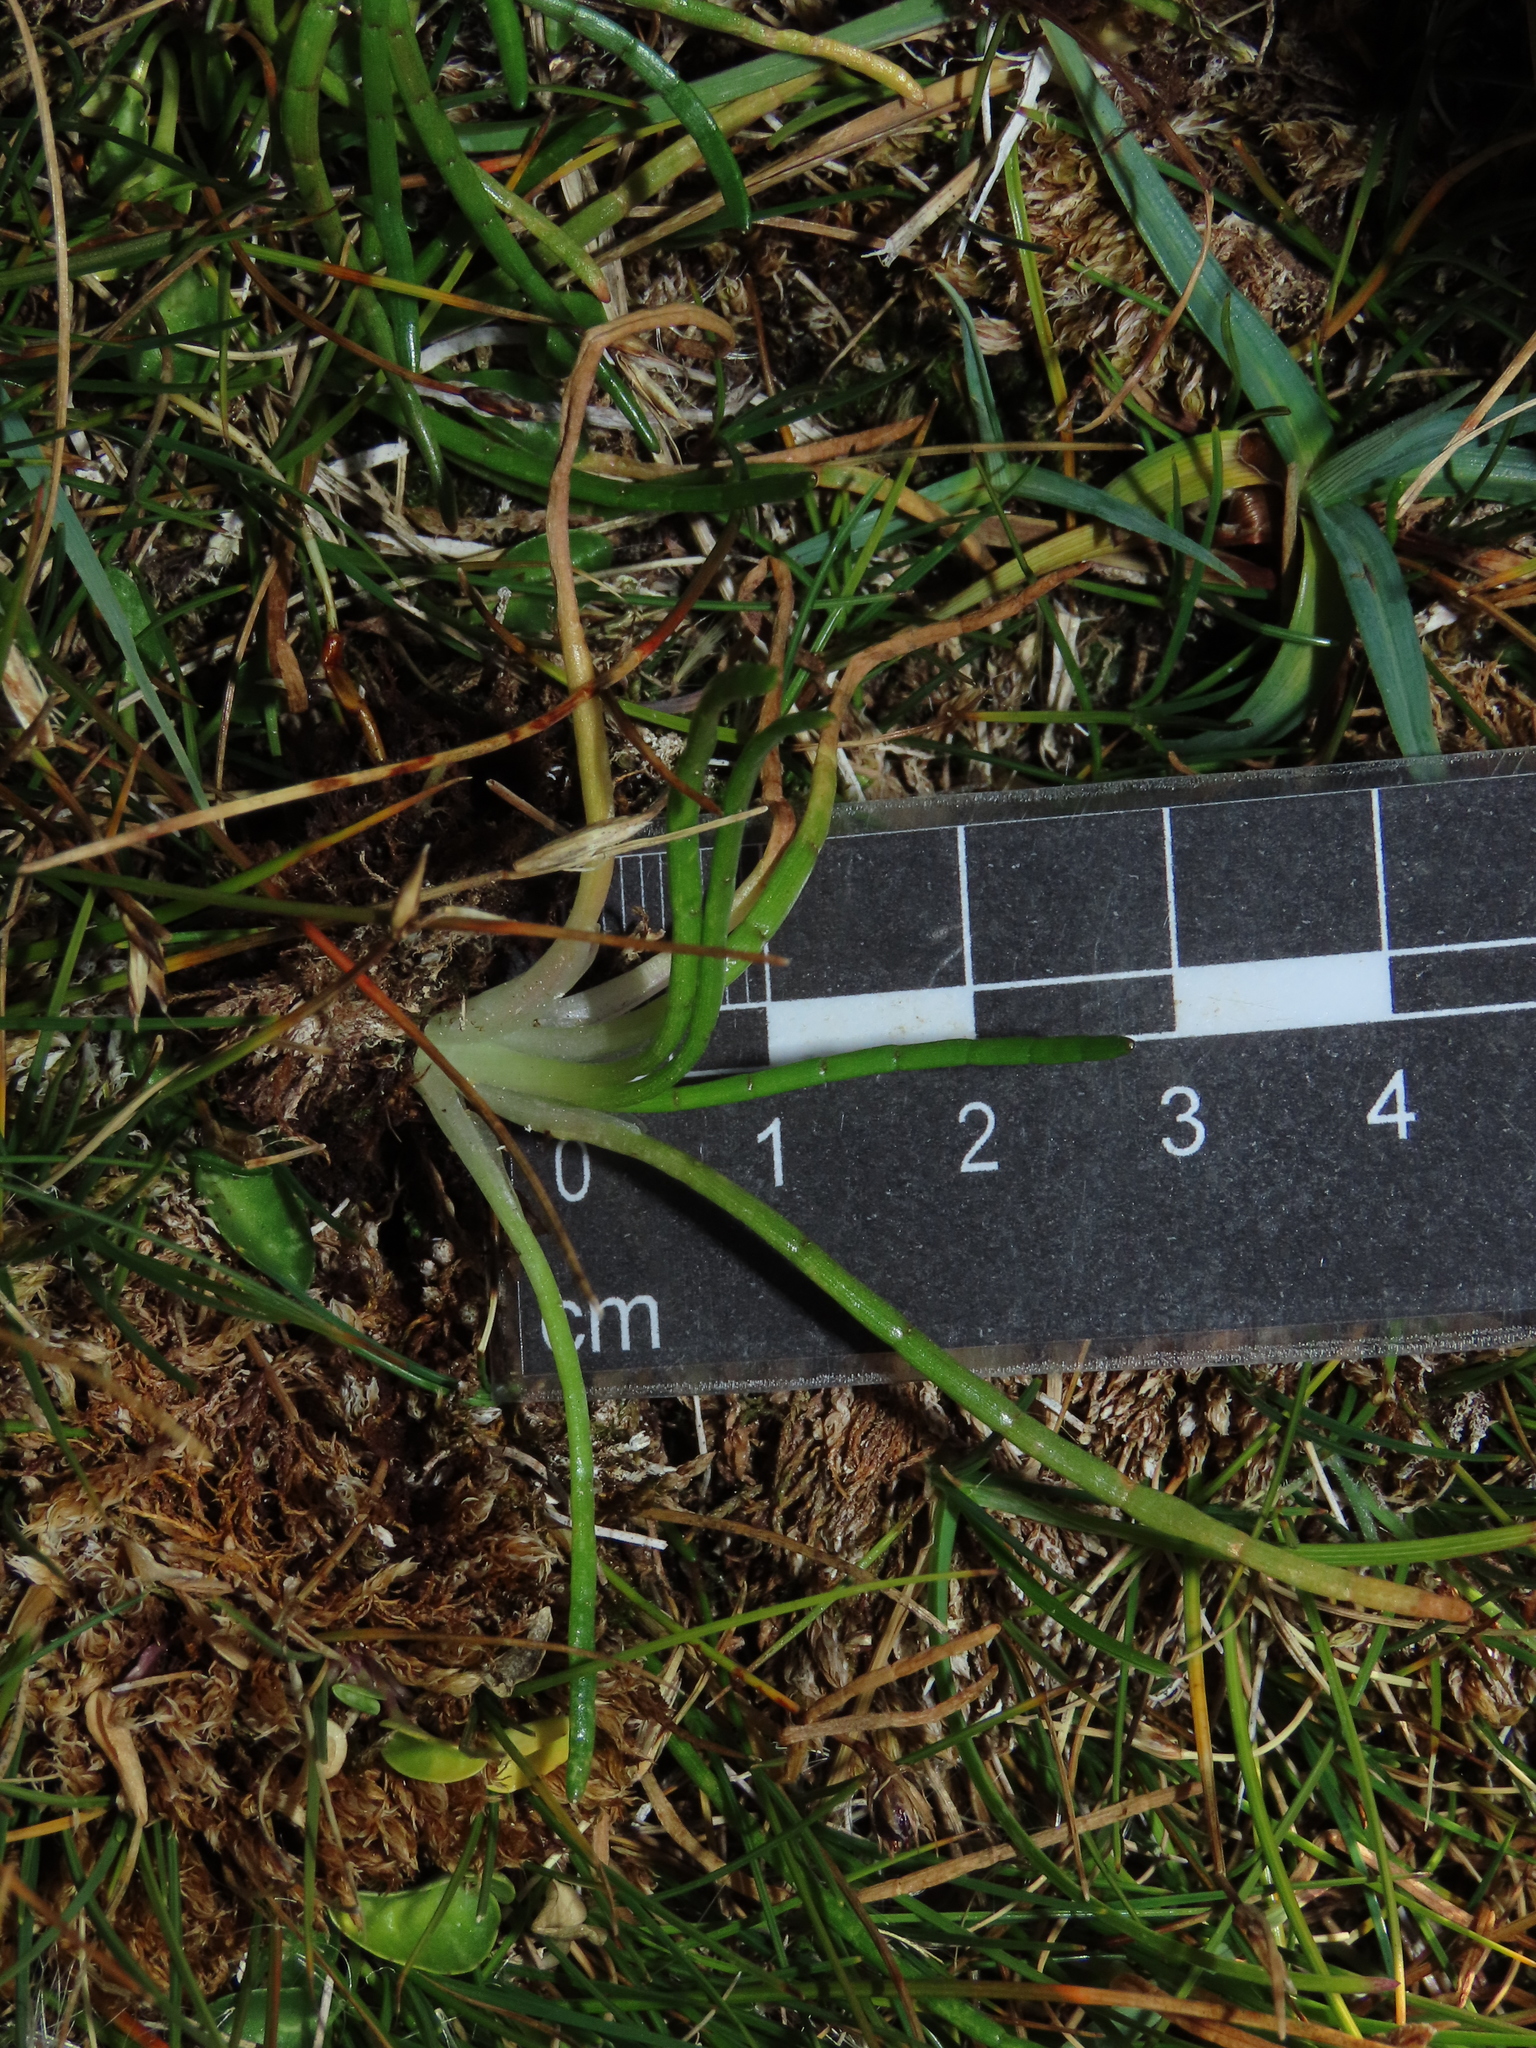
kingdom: Plantae
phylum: Tracheophyta
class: Magnoliopsida
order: Apiales
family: Apiaceae
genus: Lilaeopsis
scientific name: Lilaeopsis occidentalis
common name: Western grasswort
